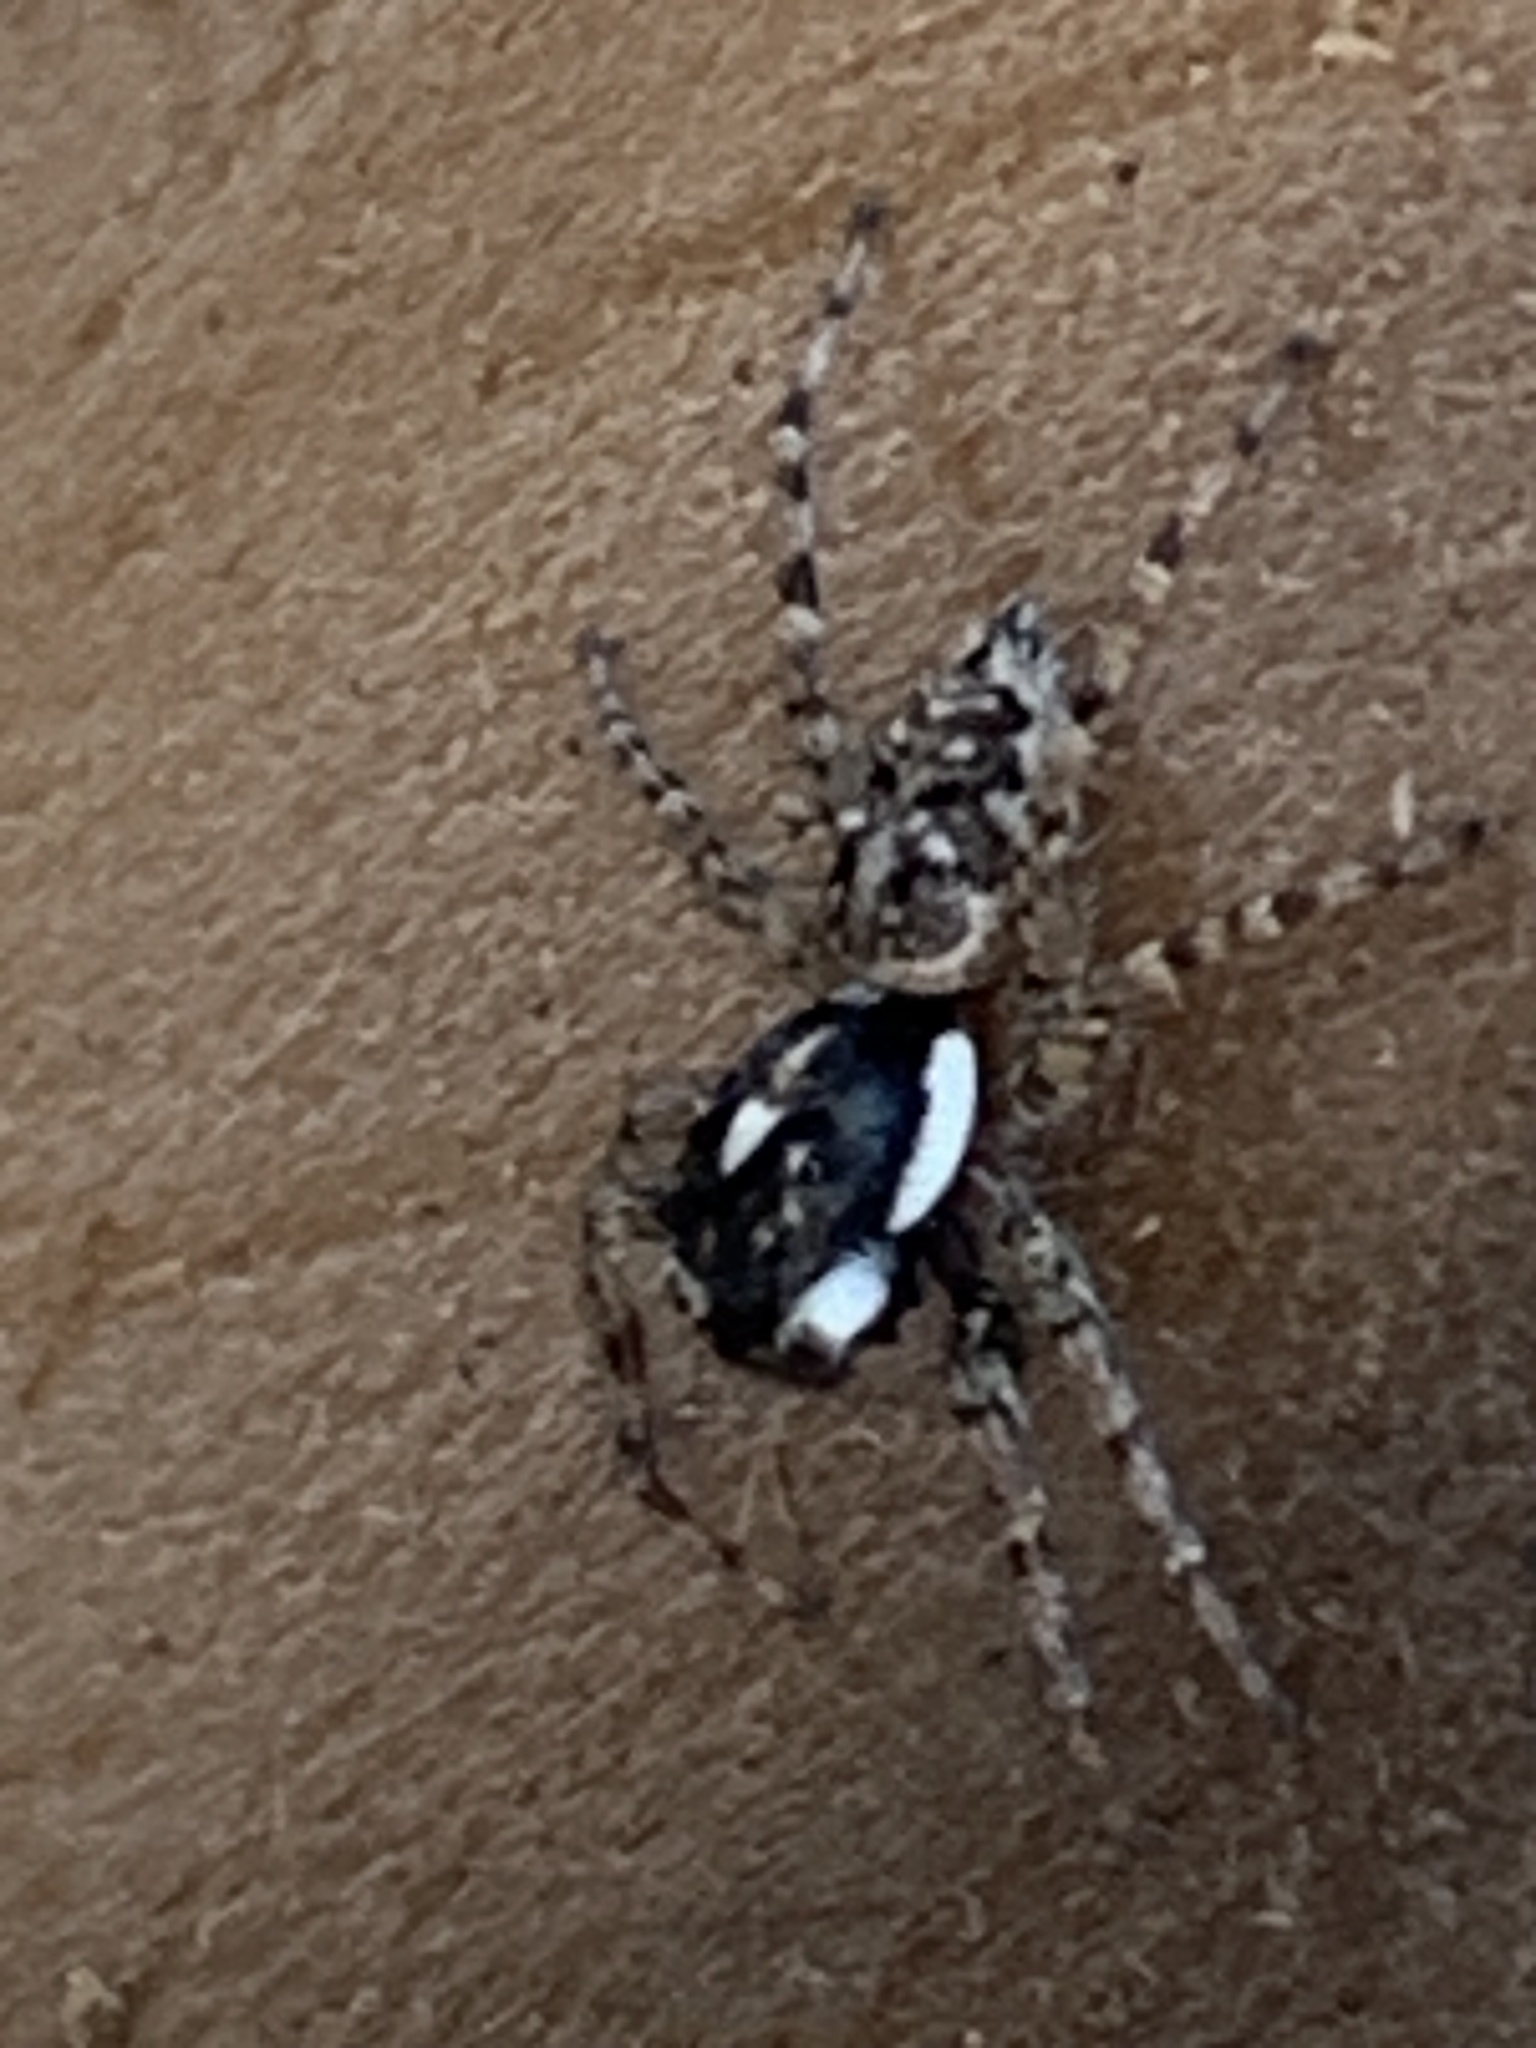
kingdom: Animalia
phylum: Arthropoda
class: Arachnida
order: Araneae
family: Salticidae
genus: Menemerus
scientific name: Menemerus semilimbatus
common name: Jumping spider
